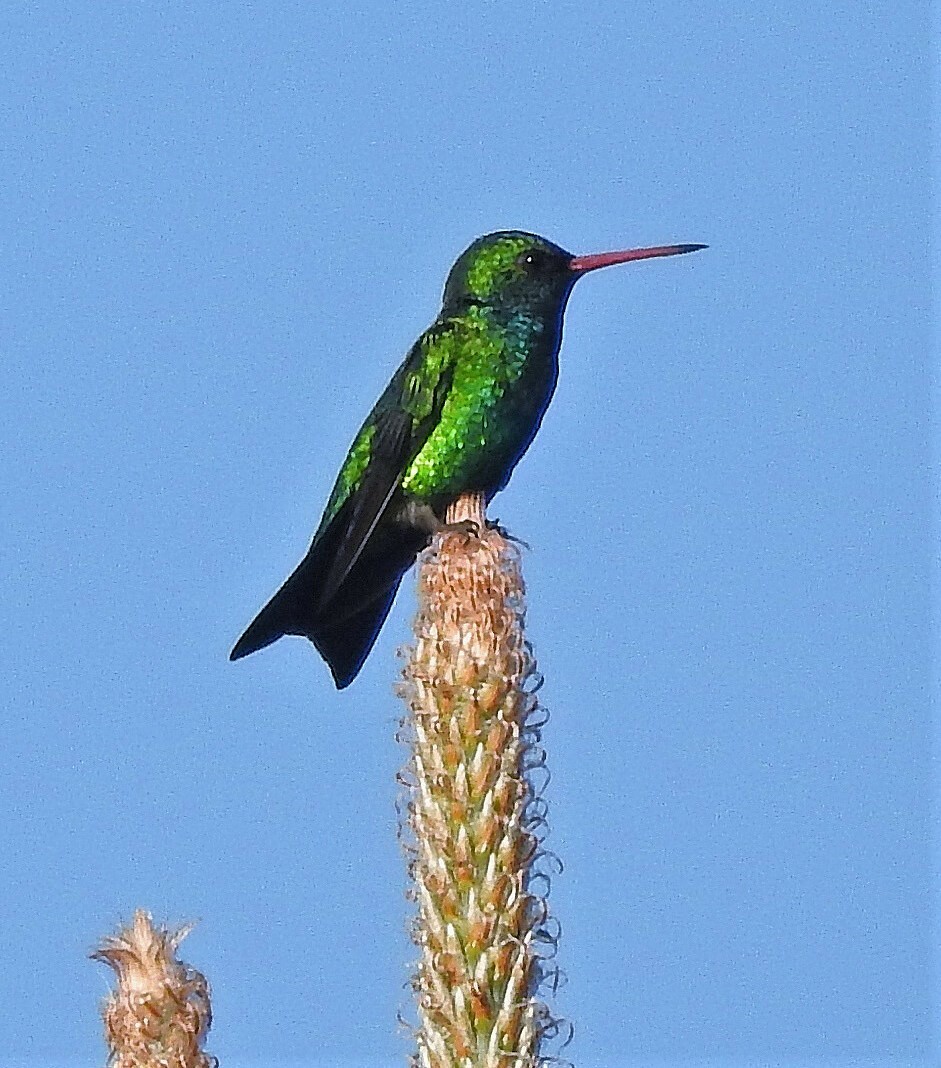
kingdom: Animalia
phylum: Chordata
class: Aves
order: Apodiformes
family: Trochilidae
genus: Chlorostilbon
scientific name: Chlorostilbon lucidus
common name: Glittering-bellied emerald
